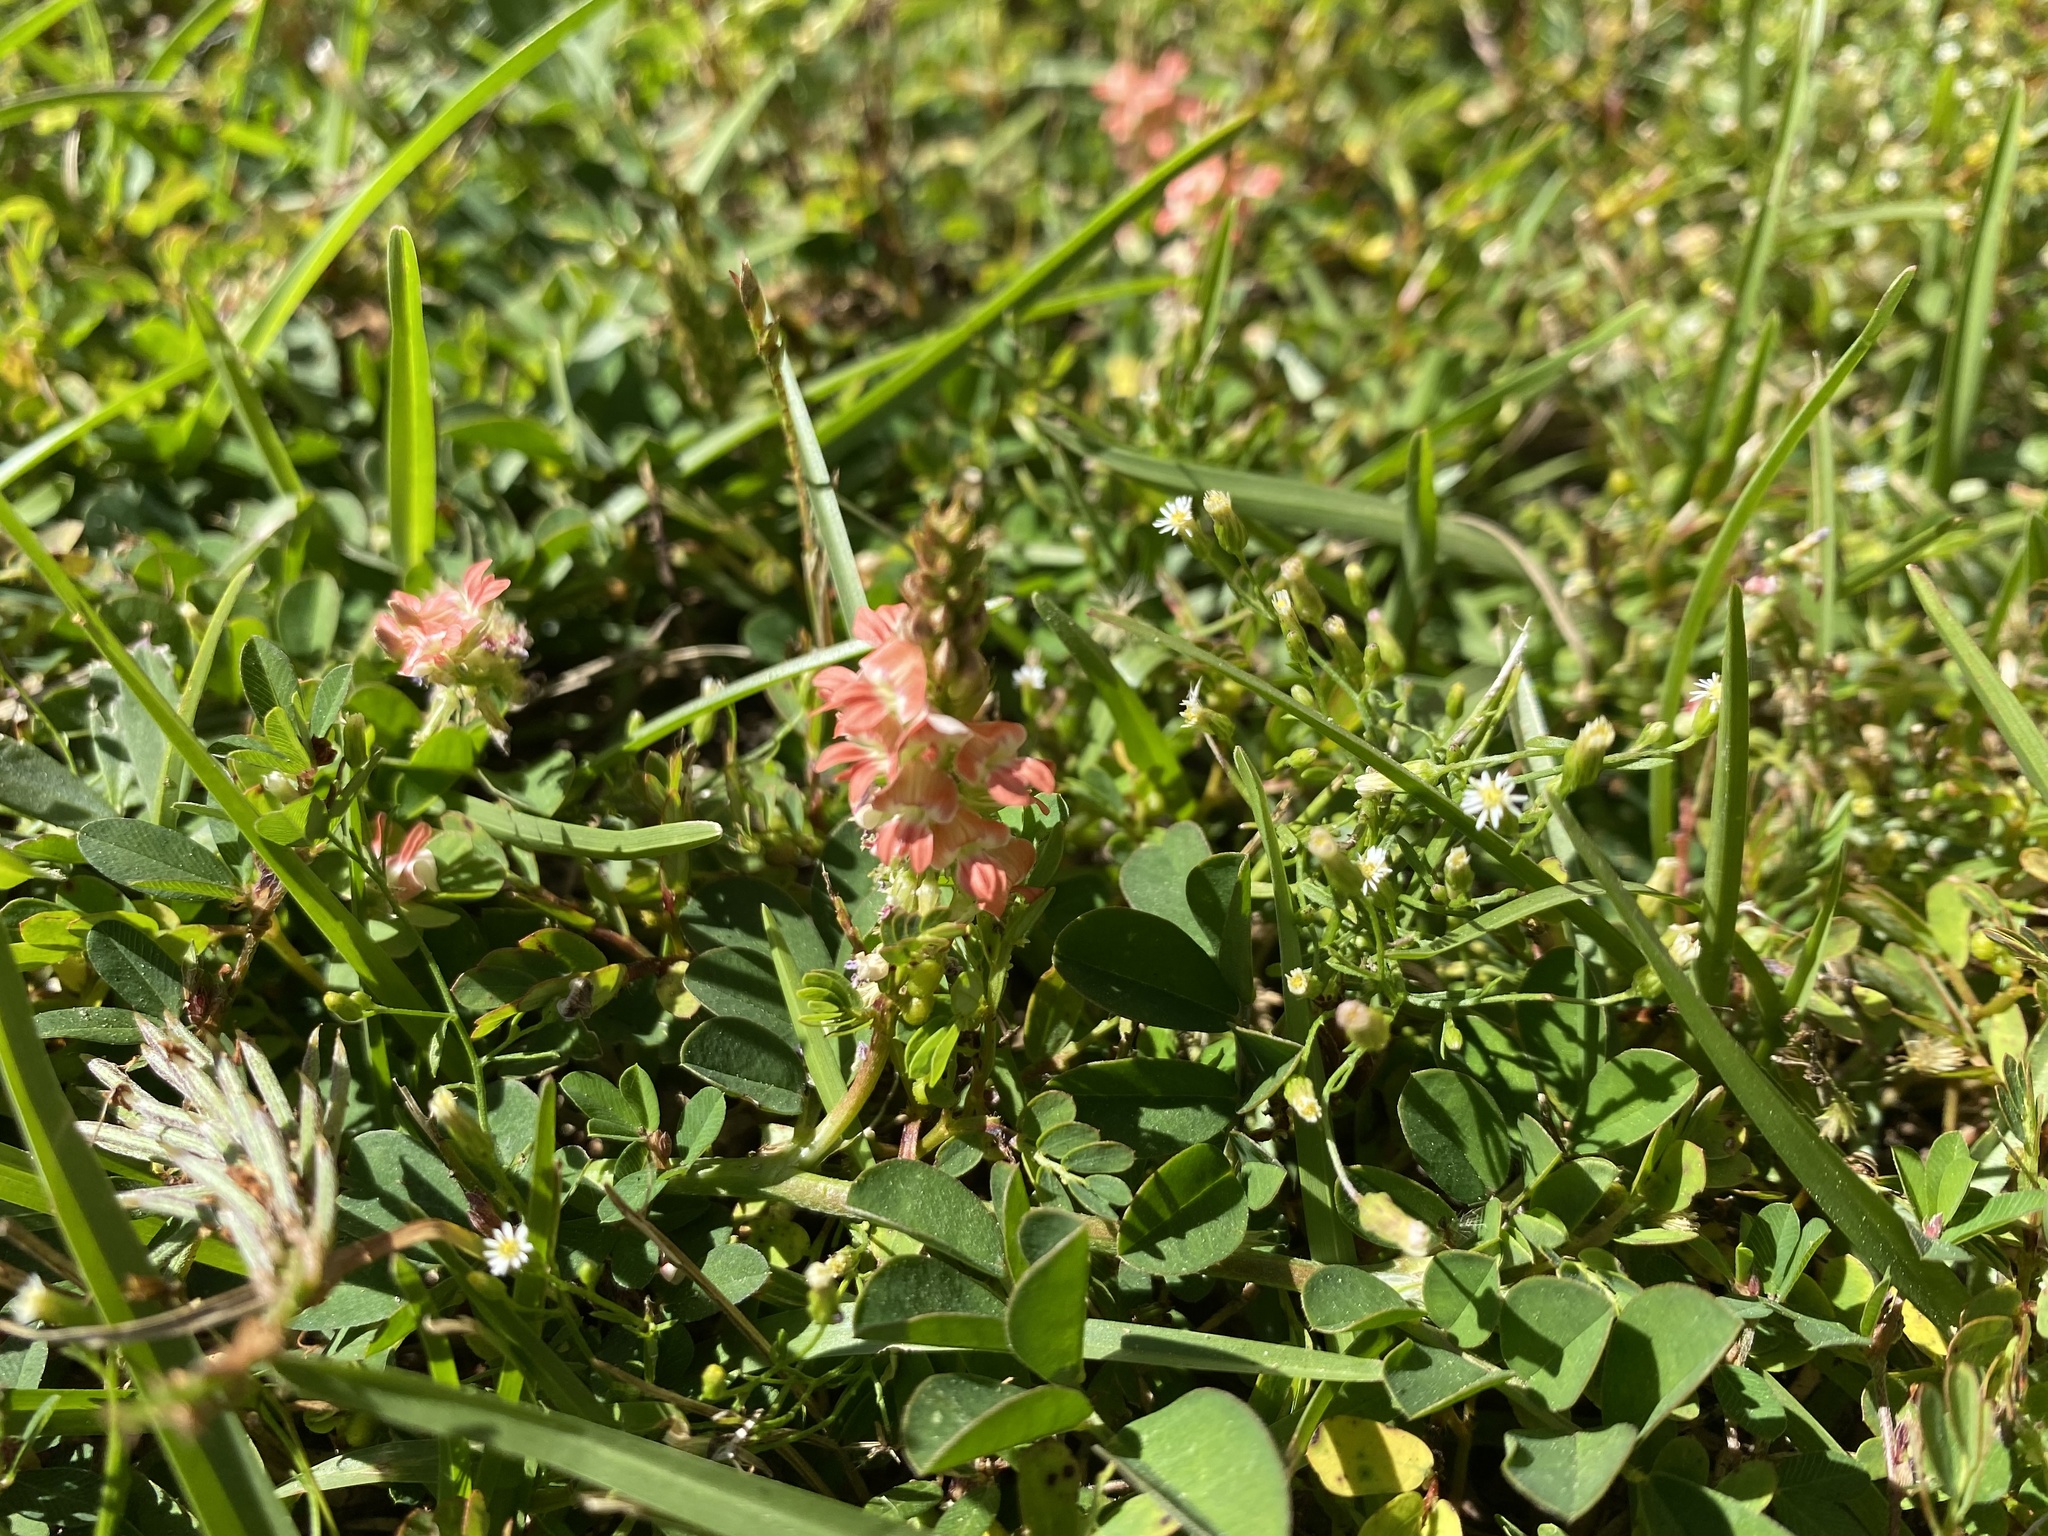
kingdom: Plantae
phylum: Tracheophyta
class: Magnoliopsida
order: Fabales
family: Fabaceae
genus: Indigofera
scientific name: Indigofera spicata
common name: Creeping indigo
